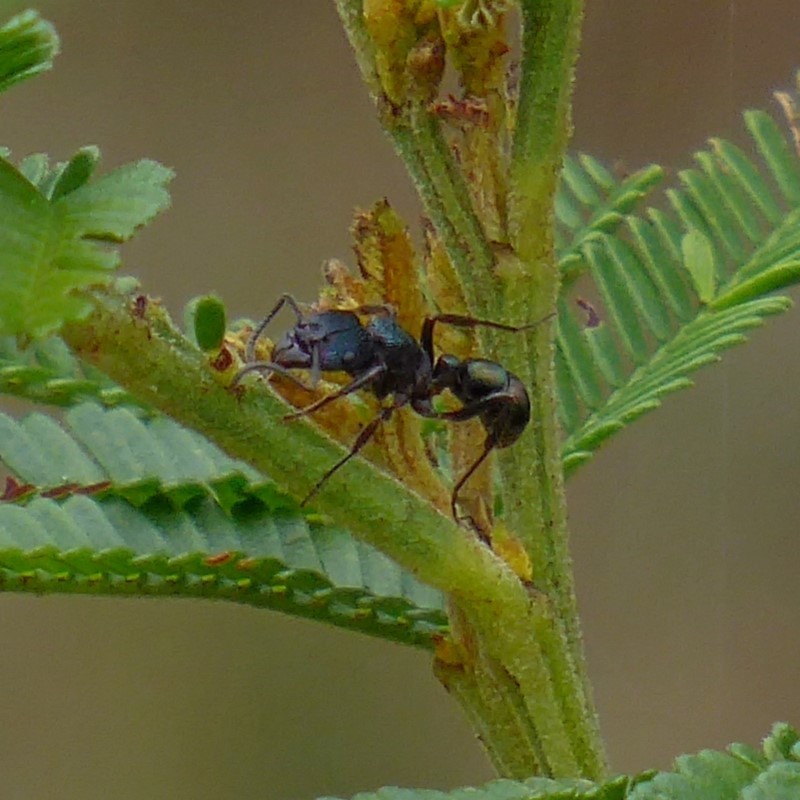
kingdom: Animalia
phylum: Arthropoda
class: Insecta
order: Hymenoptera
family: Formicidae
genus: Rhytidoponera
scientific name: Rhytidoponera metallica
